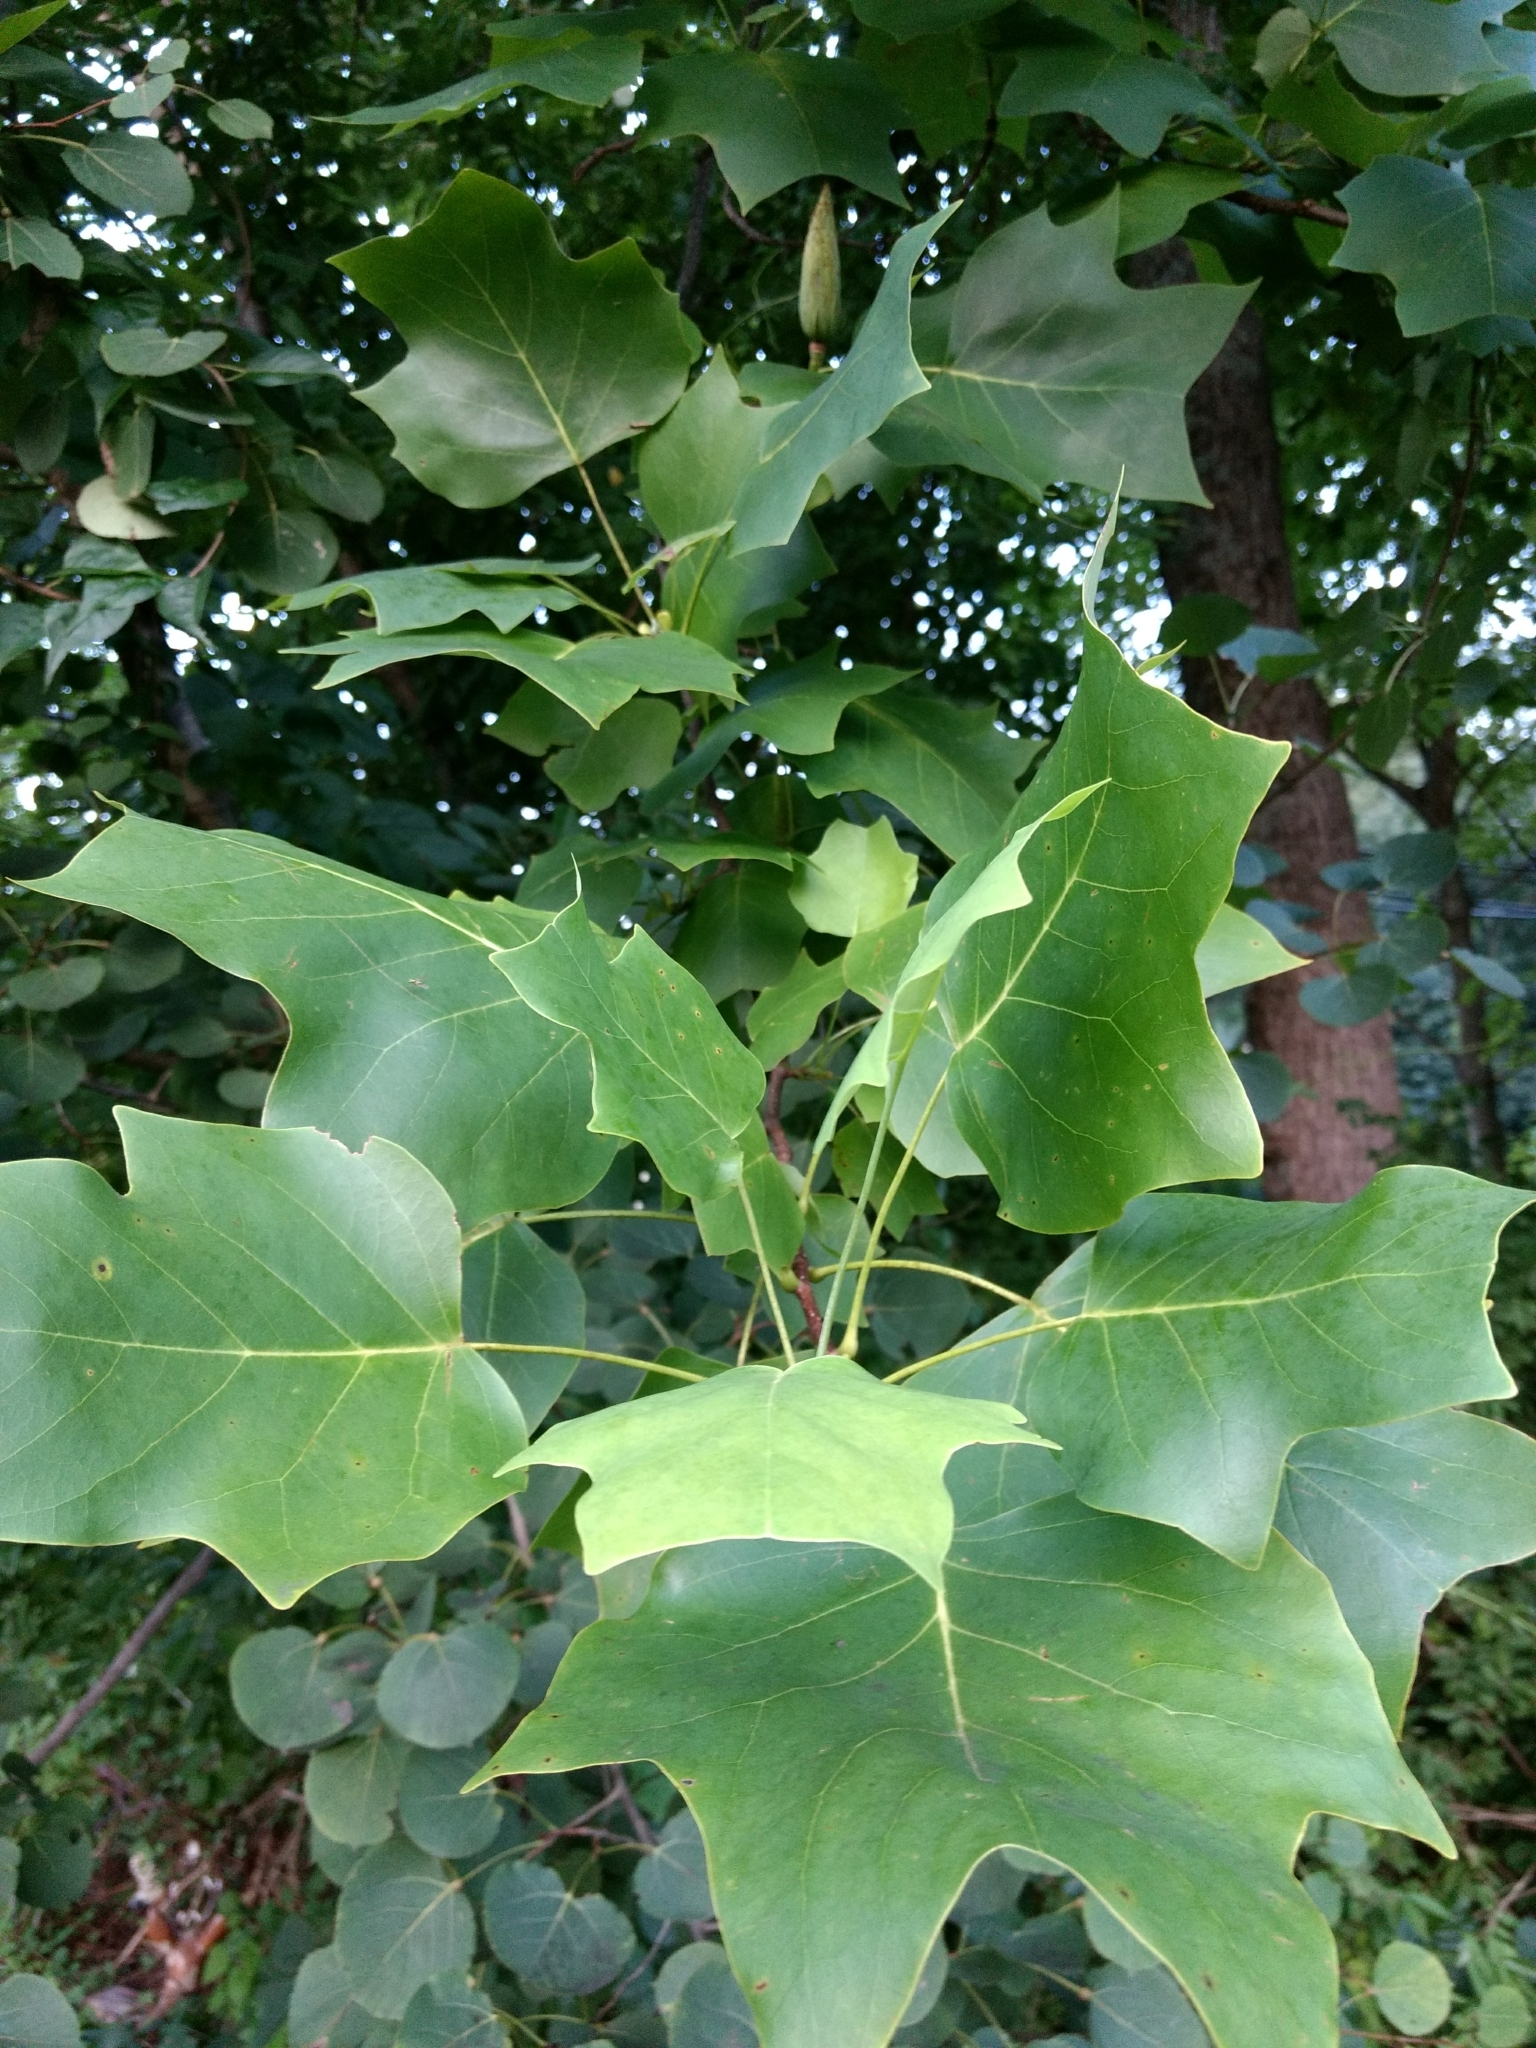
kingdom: Plantae
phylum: Tracheophyta
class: Magnoliopsida
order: Magnoliales
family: Magnoliaceae
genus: Liriodendron
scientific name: Liriodendron tulipifera
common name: Tulip tree
